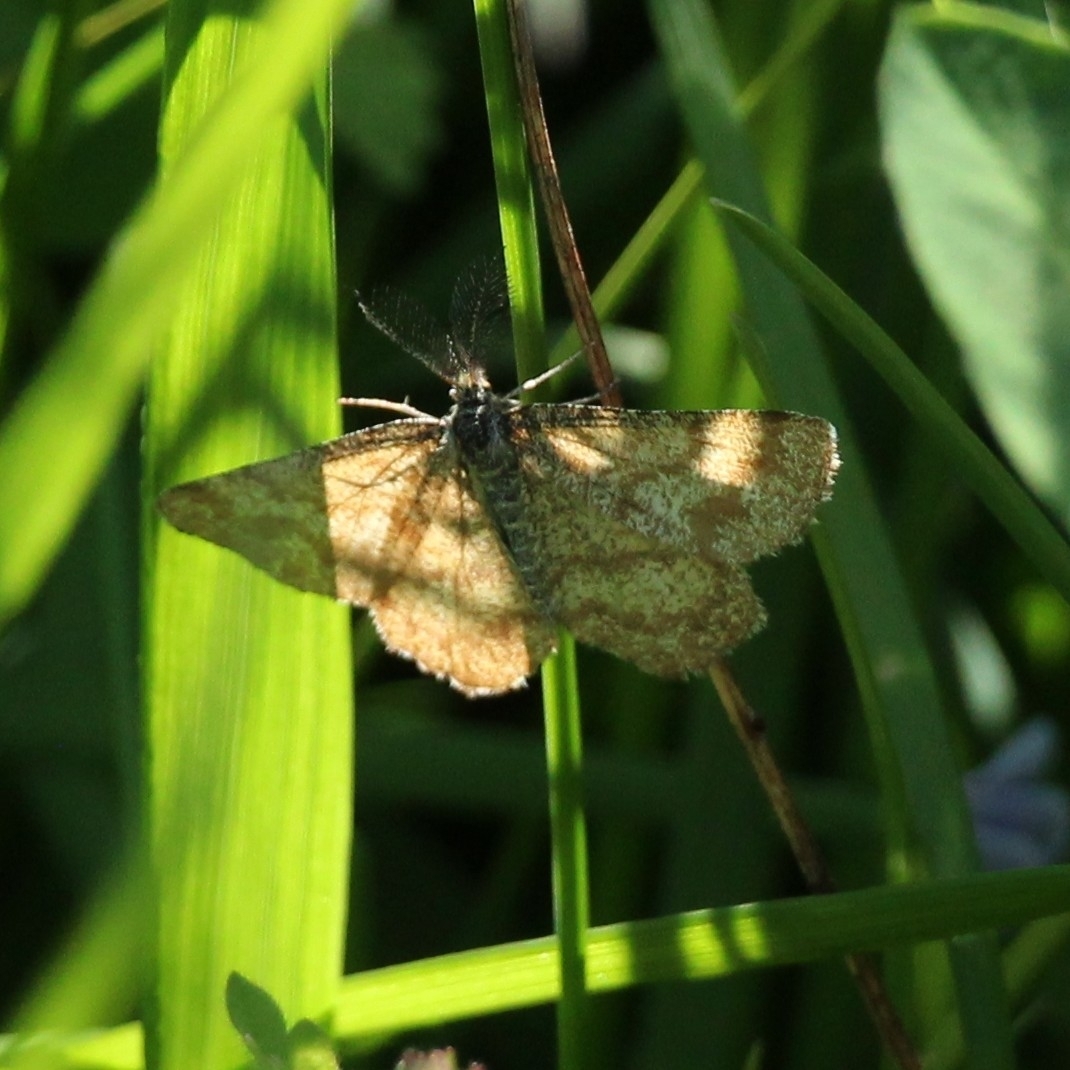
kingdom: Animalia
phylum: Arthropoda
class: Insecta
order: Lepidoptera
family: Geometridae
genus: Ematurga
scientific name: Ematurga atomaria
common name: Common heath
